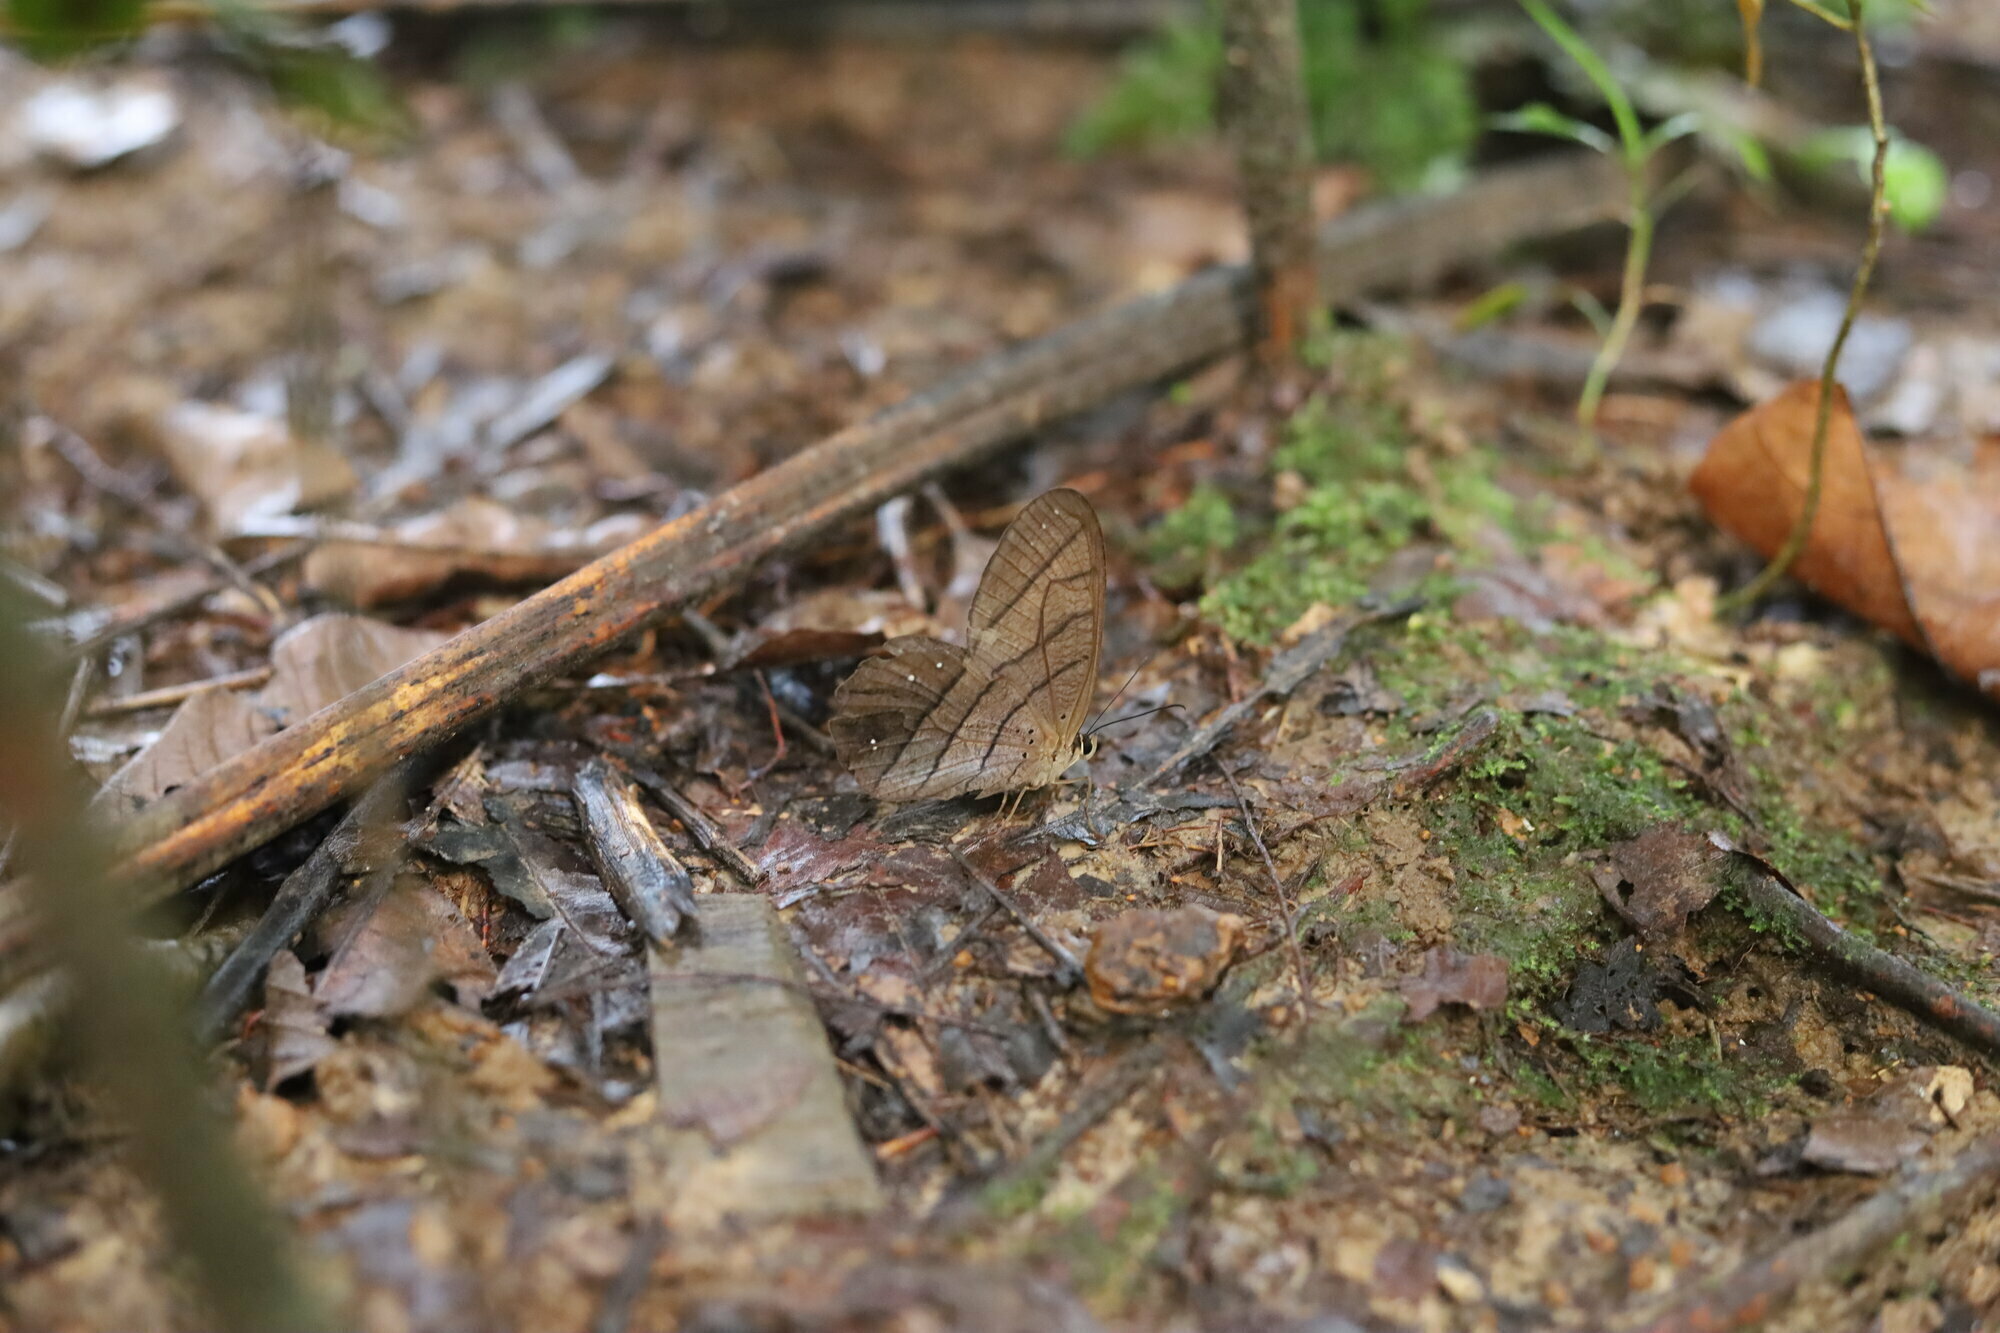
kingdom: Animalia
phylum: Arthropoda
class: Insecta
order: Lepidoptera
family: Nymphalidae
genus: Pierella
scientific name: Pierella rhea
